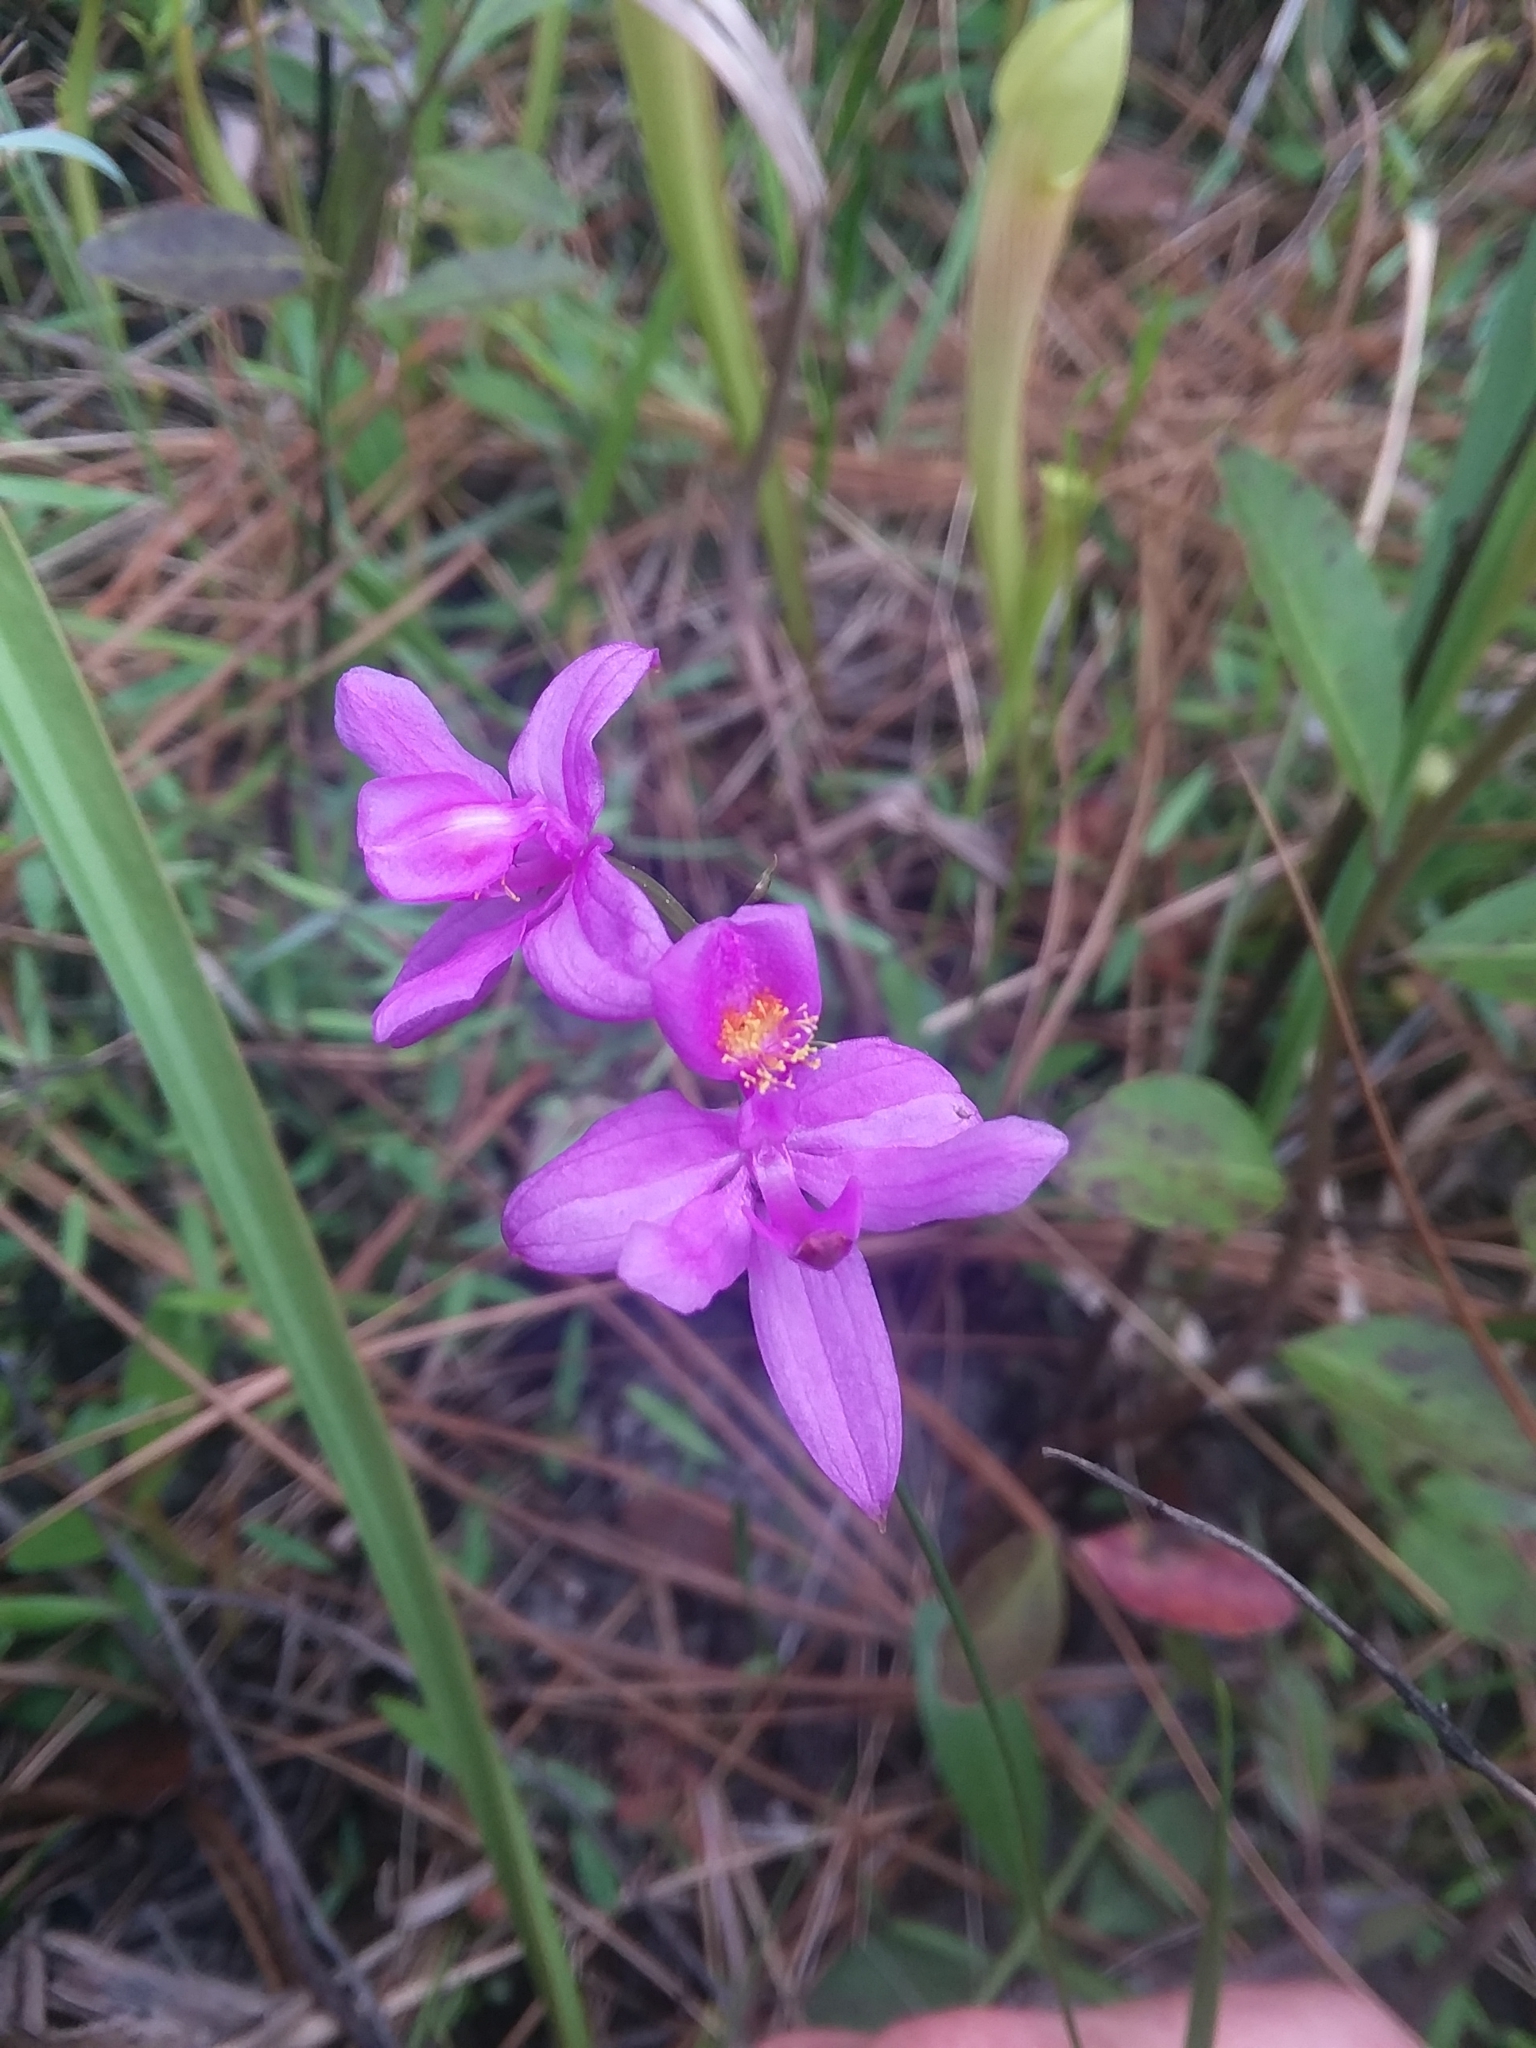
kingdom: Plantae
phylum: Tracheophyta
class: Liliopsida
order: Asparagales
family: Orchidaceae
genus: Calopogon
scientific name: Calopogon barbatus
